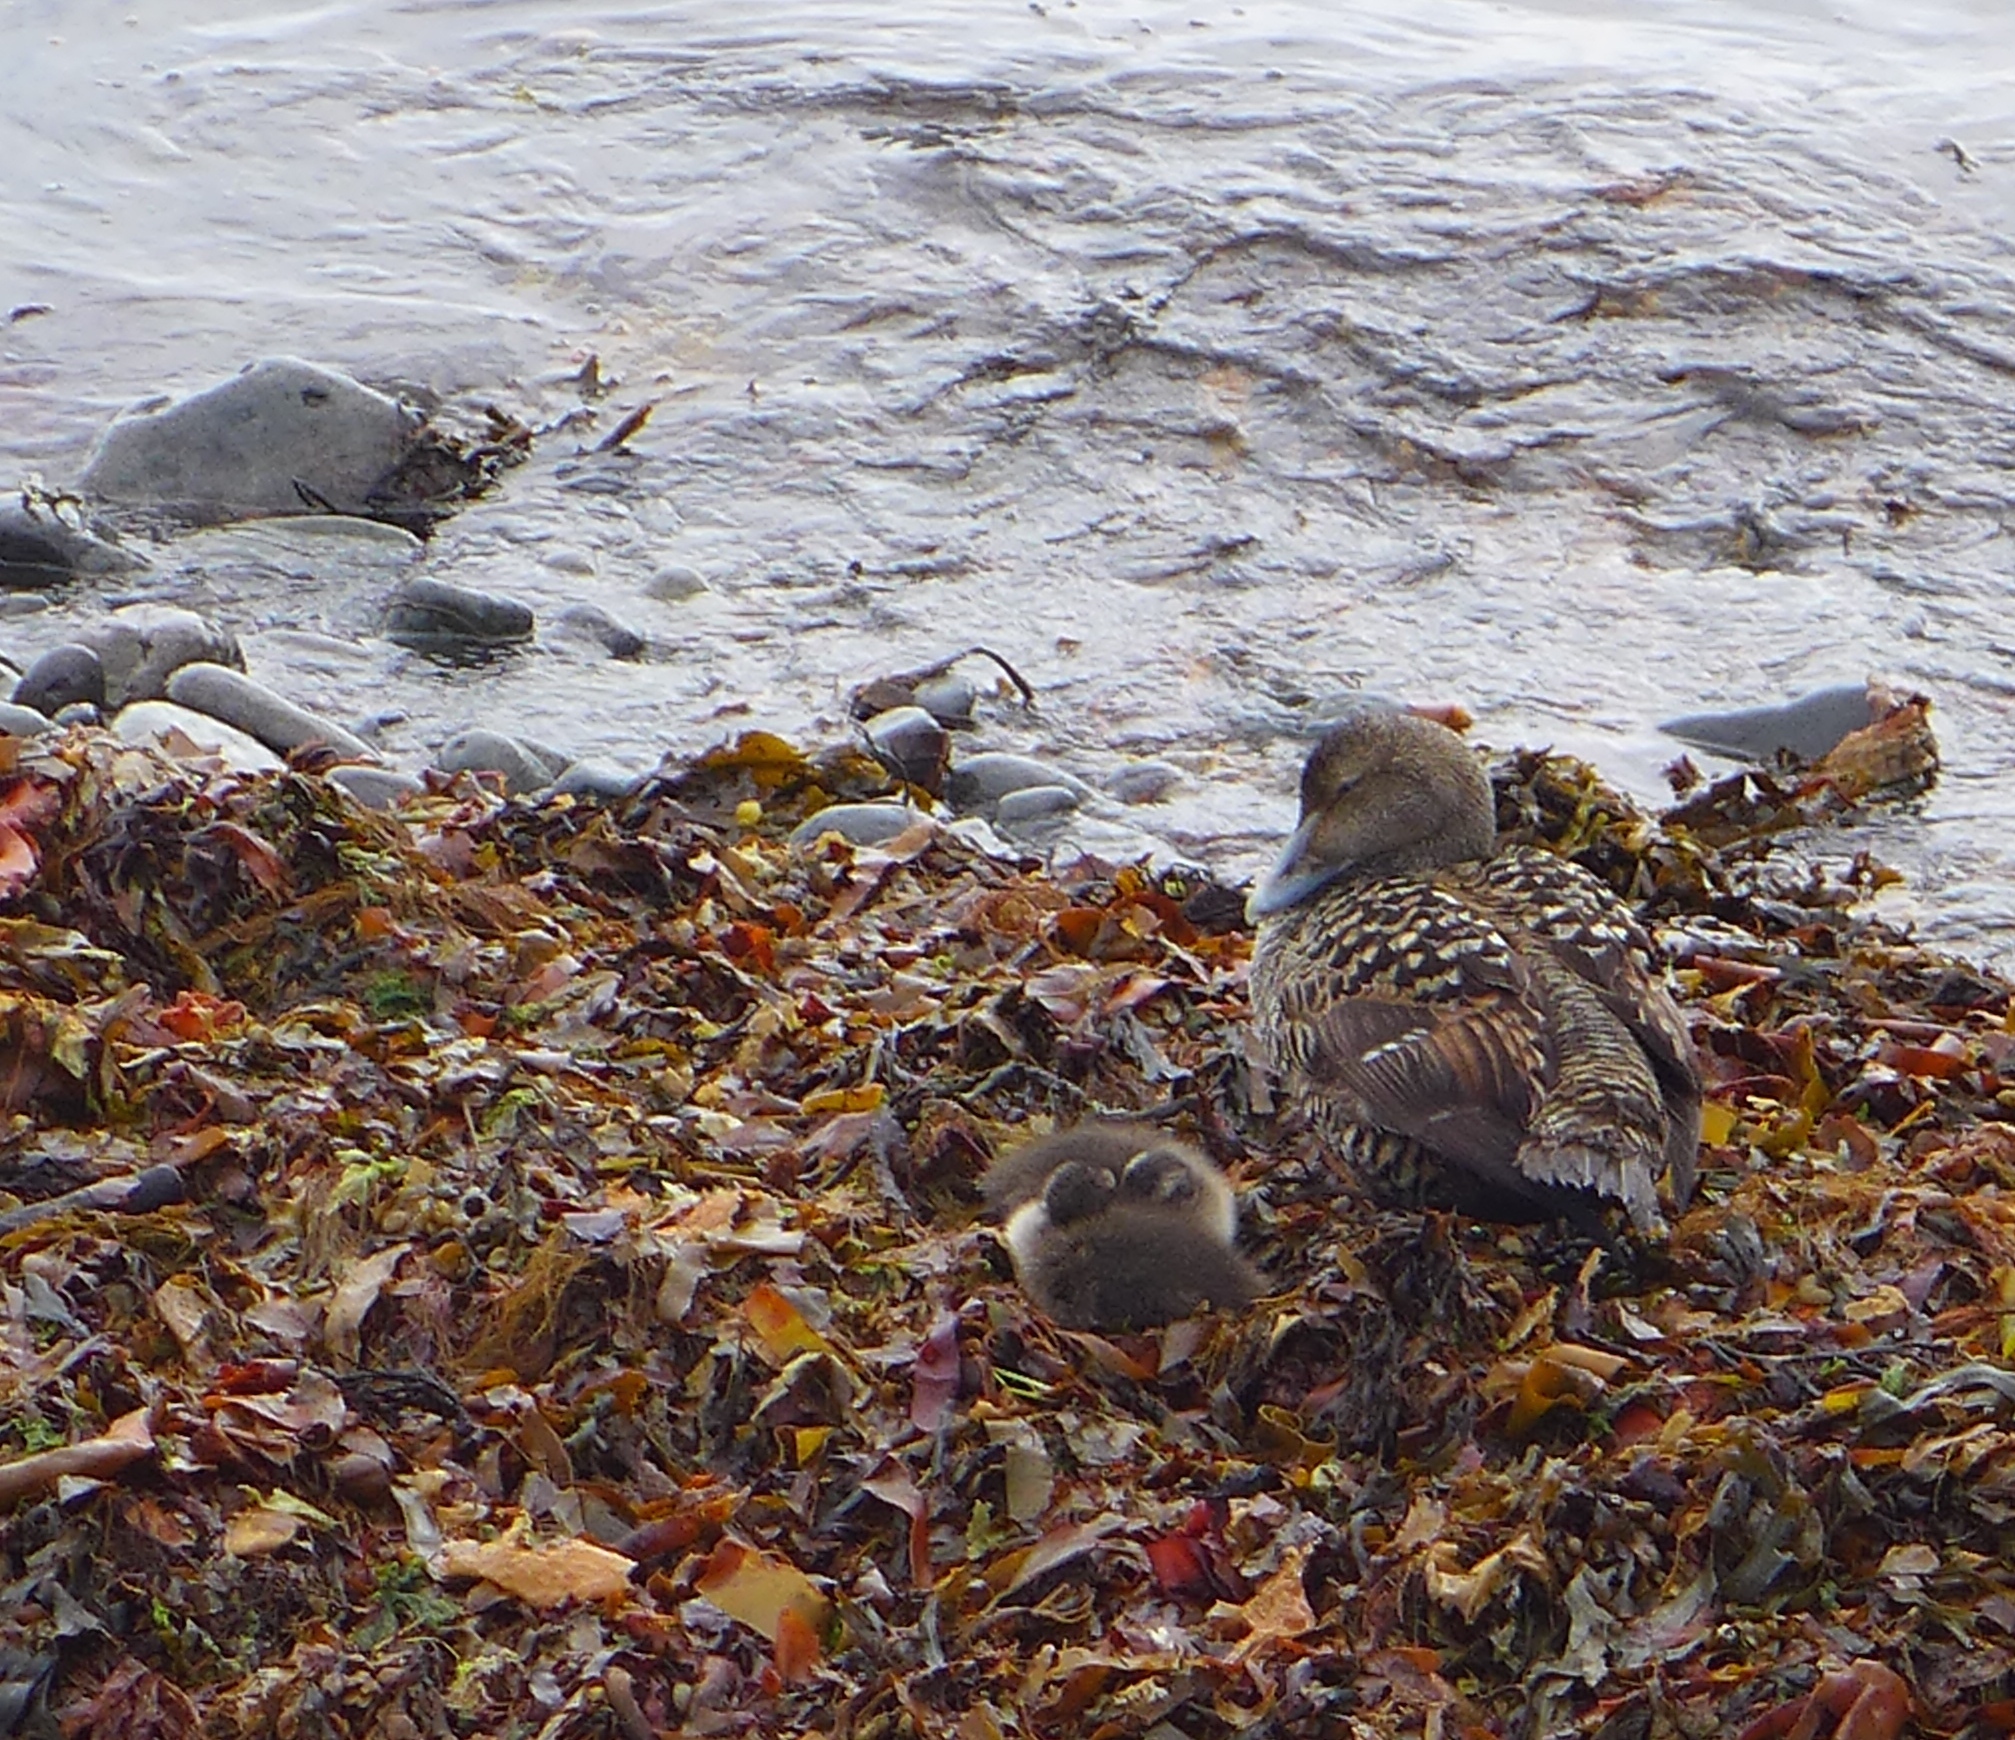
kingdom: Animalia
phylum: Chordata
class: Aves
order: Anseriformes
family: Anatidae
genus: Somateria
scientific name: Somateria mollissima
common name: Common eider
